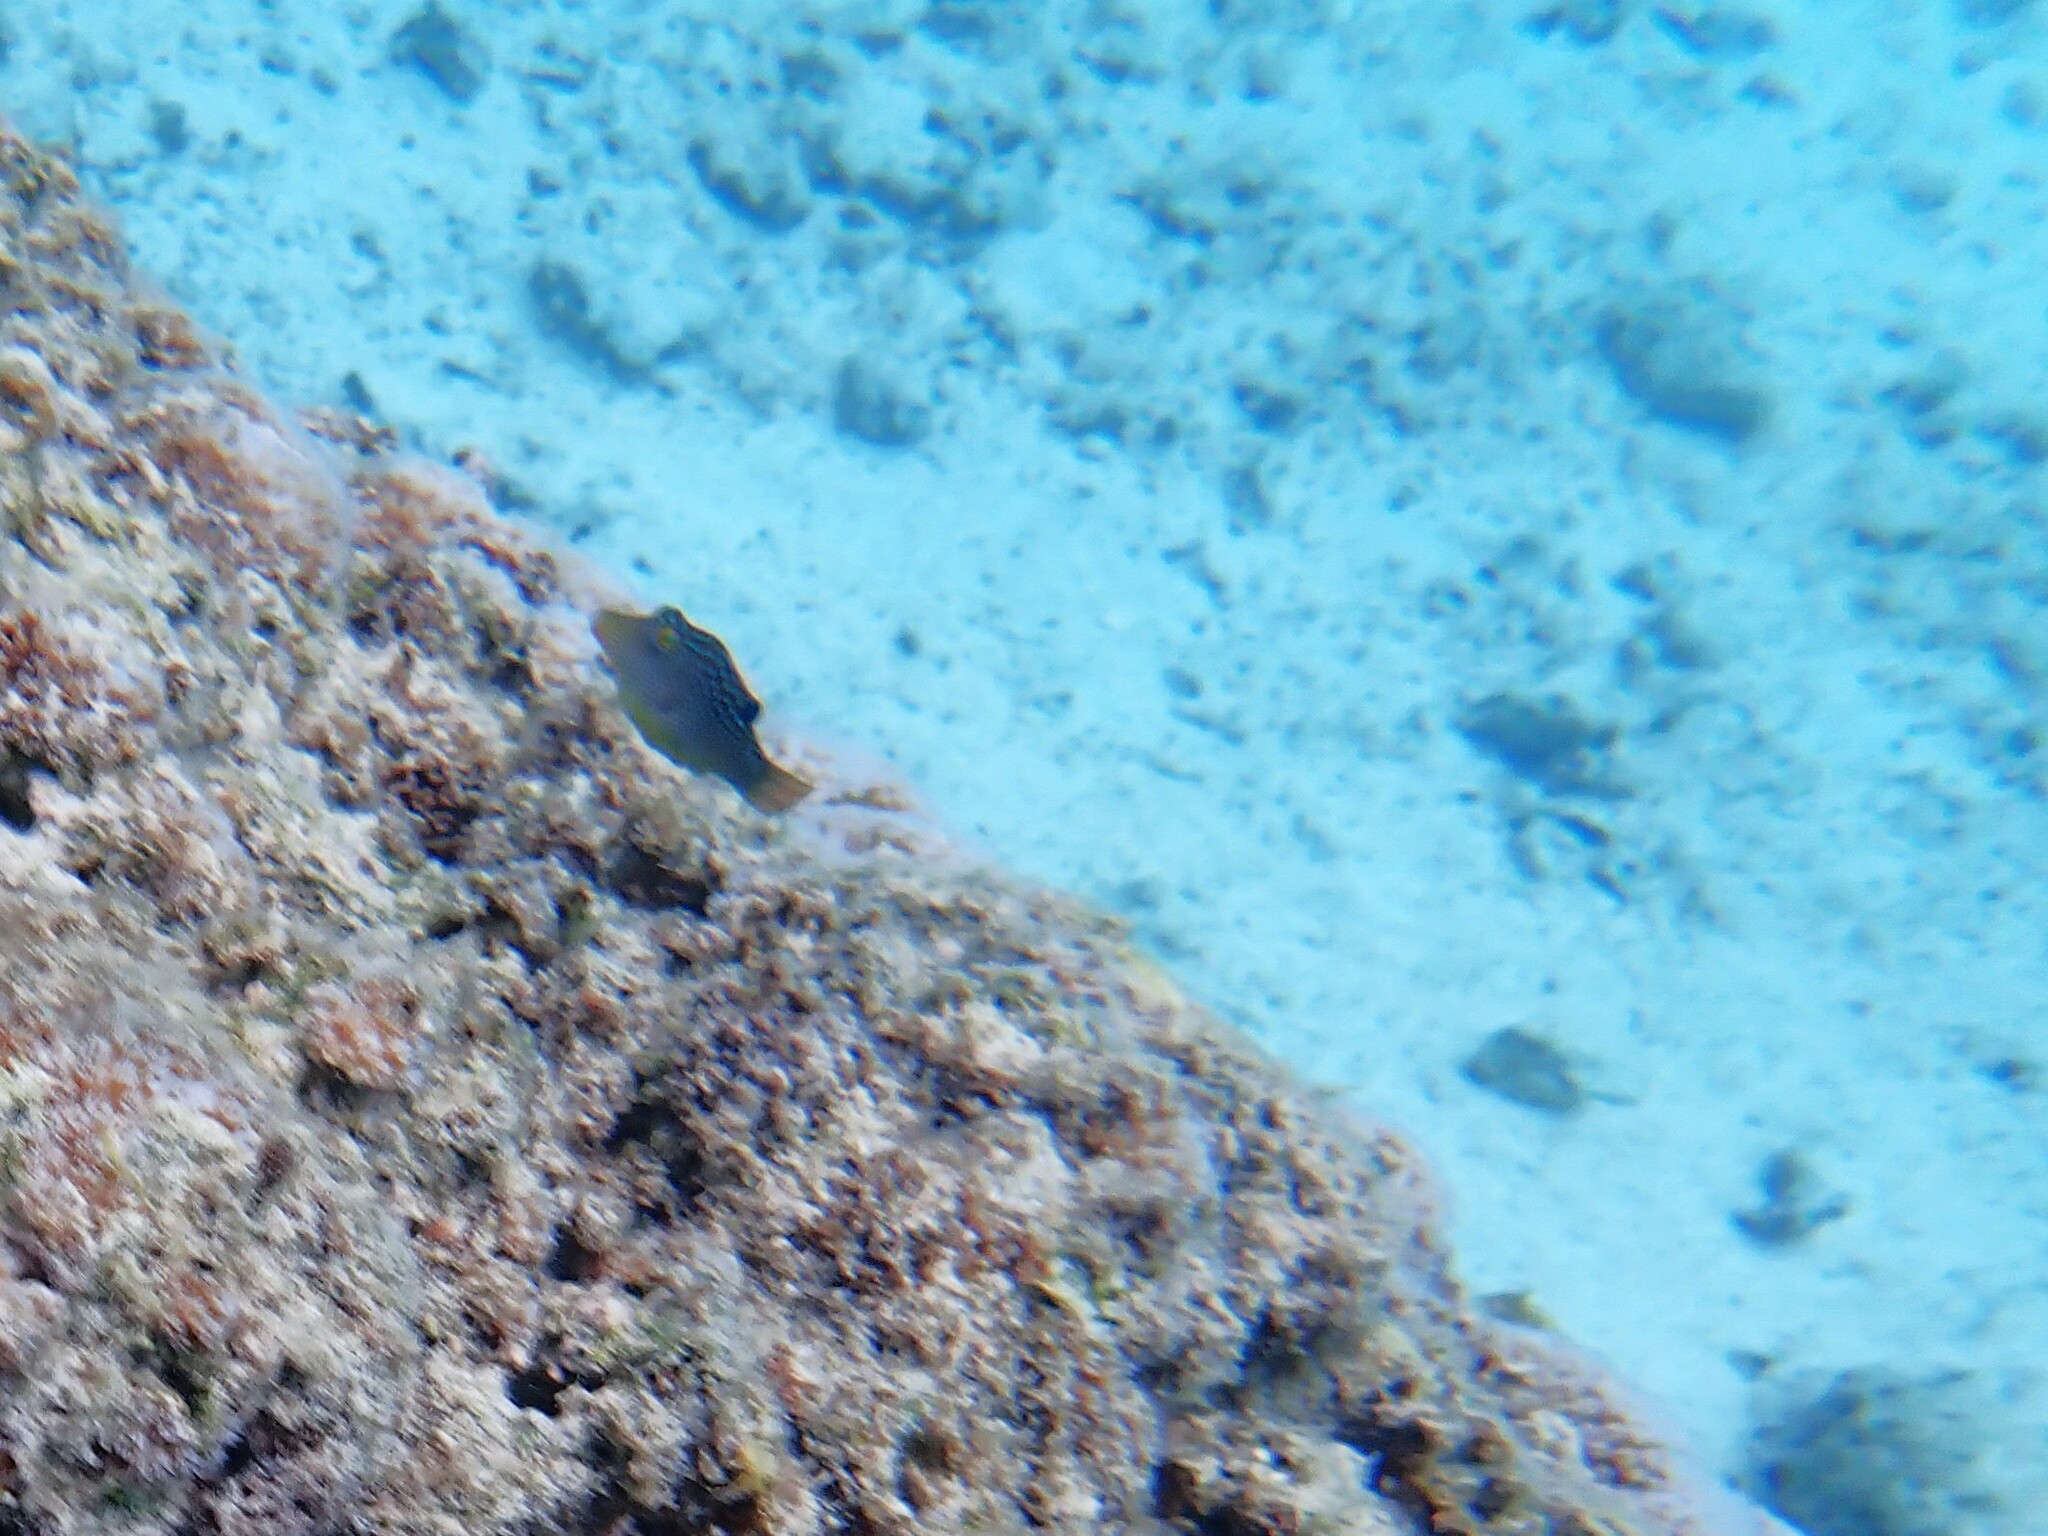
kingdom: Animalia
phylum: Chordata
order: Tetraodontiformes
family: Tetraodontidae
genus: Canthigaster
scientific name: Canthigaster solandri
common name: False-eye toby
